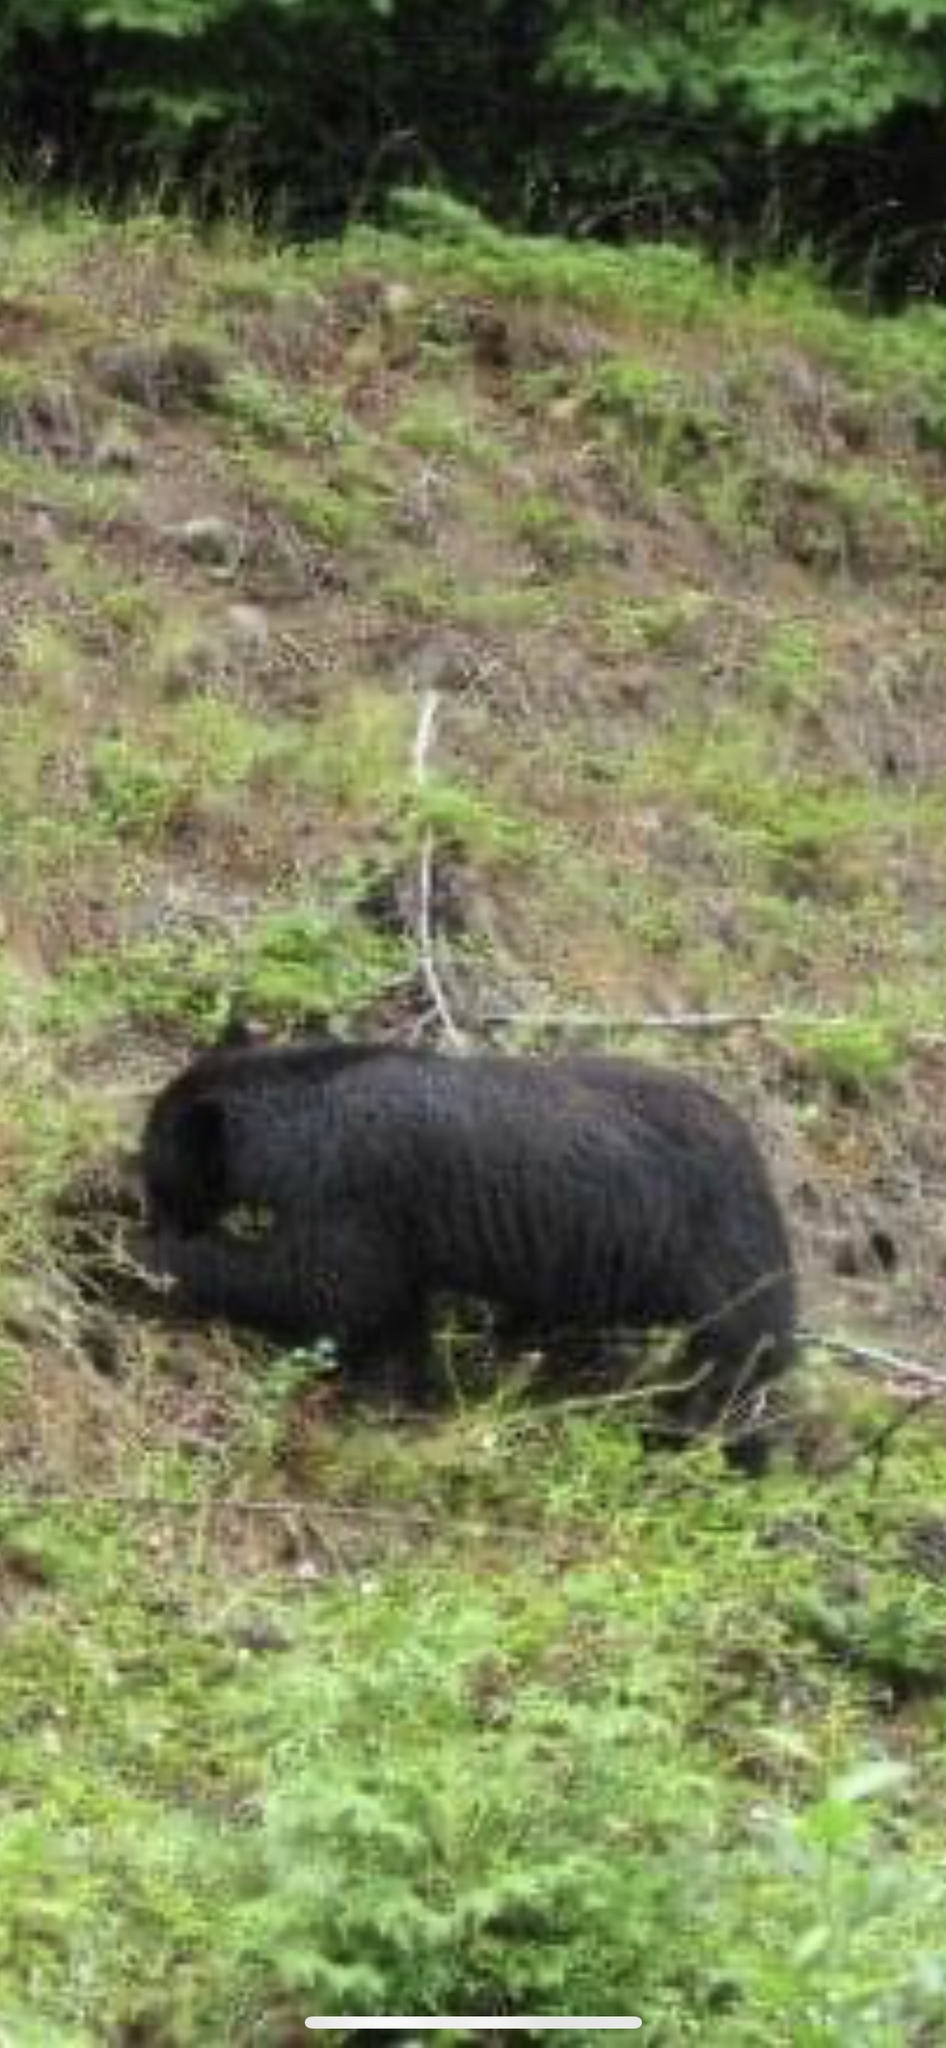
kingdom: Animalia
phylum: Chordata
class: Mammalia
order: Carnivora
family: Ursidae
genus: Ursus
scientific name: Ursus americanus
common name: American black bear
